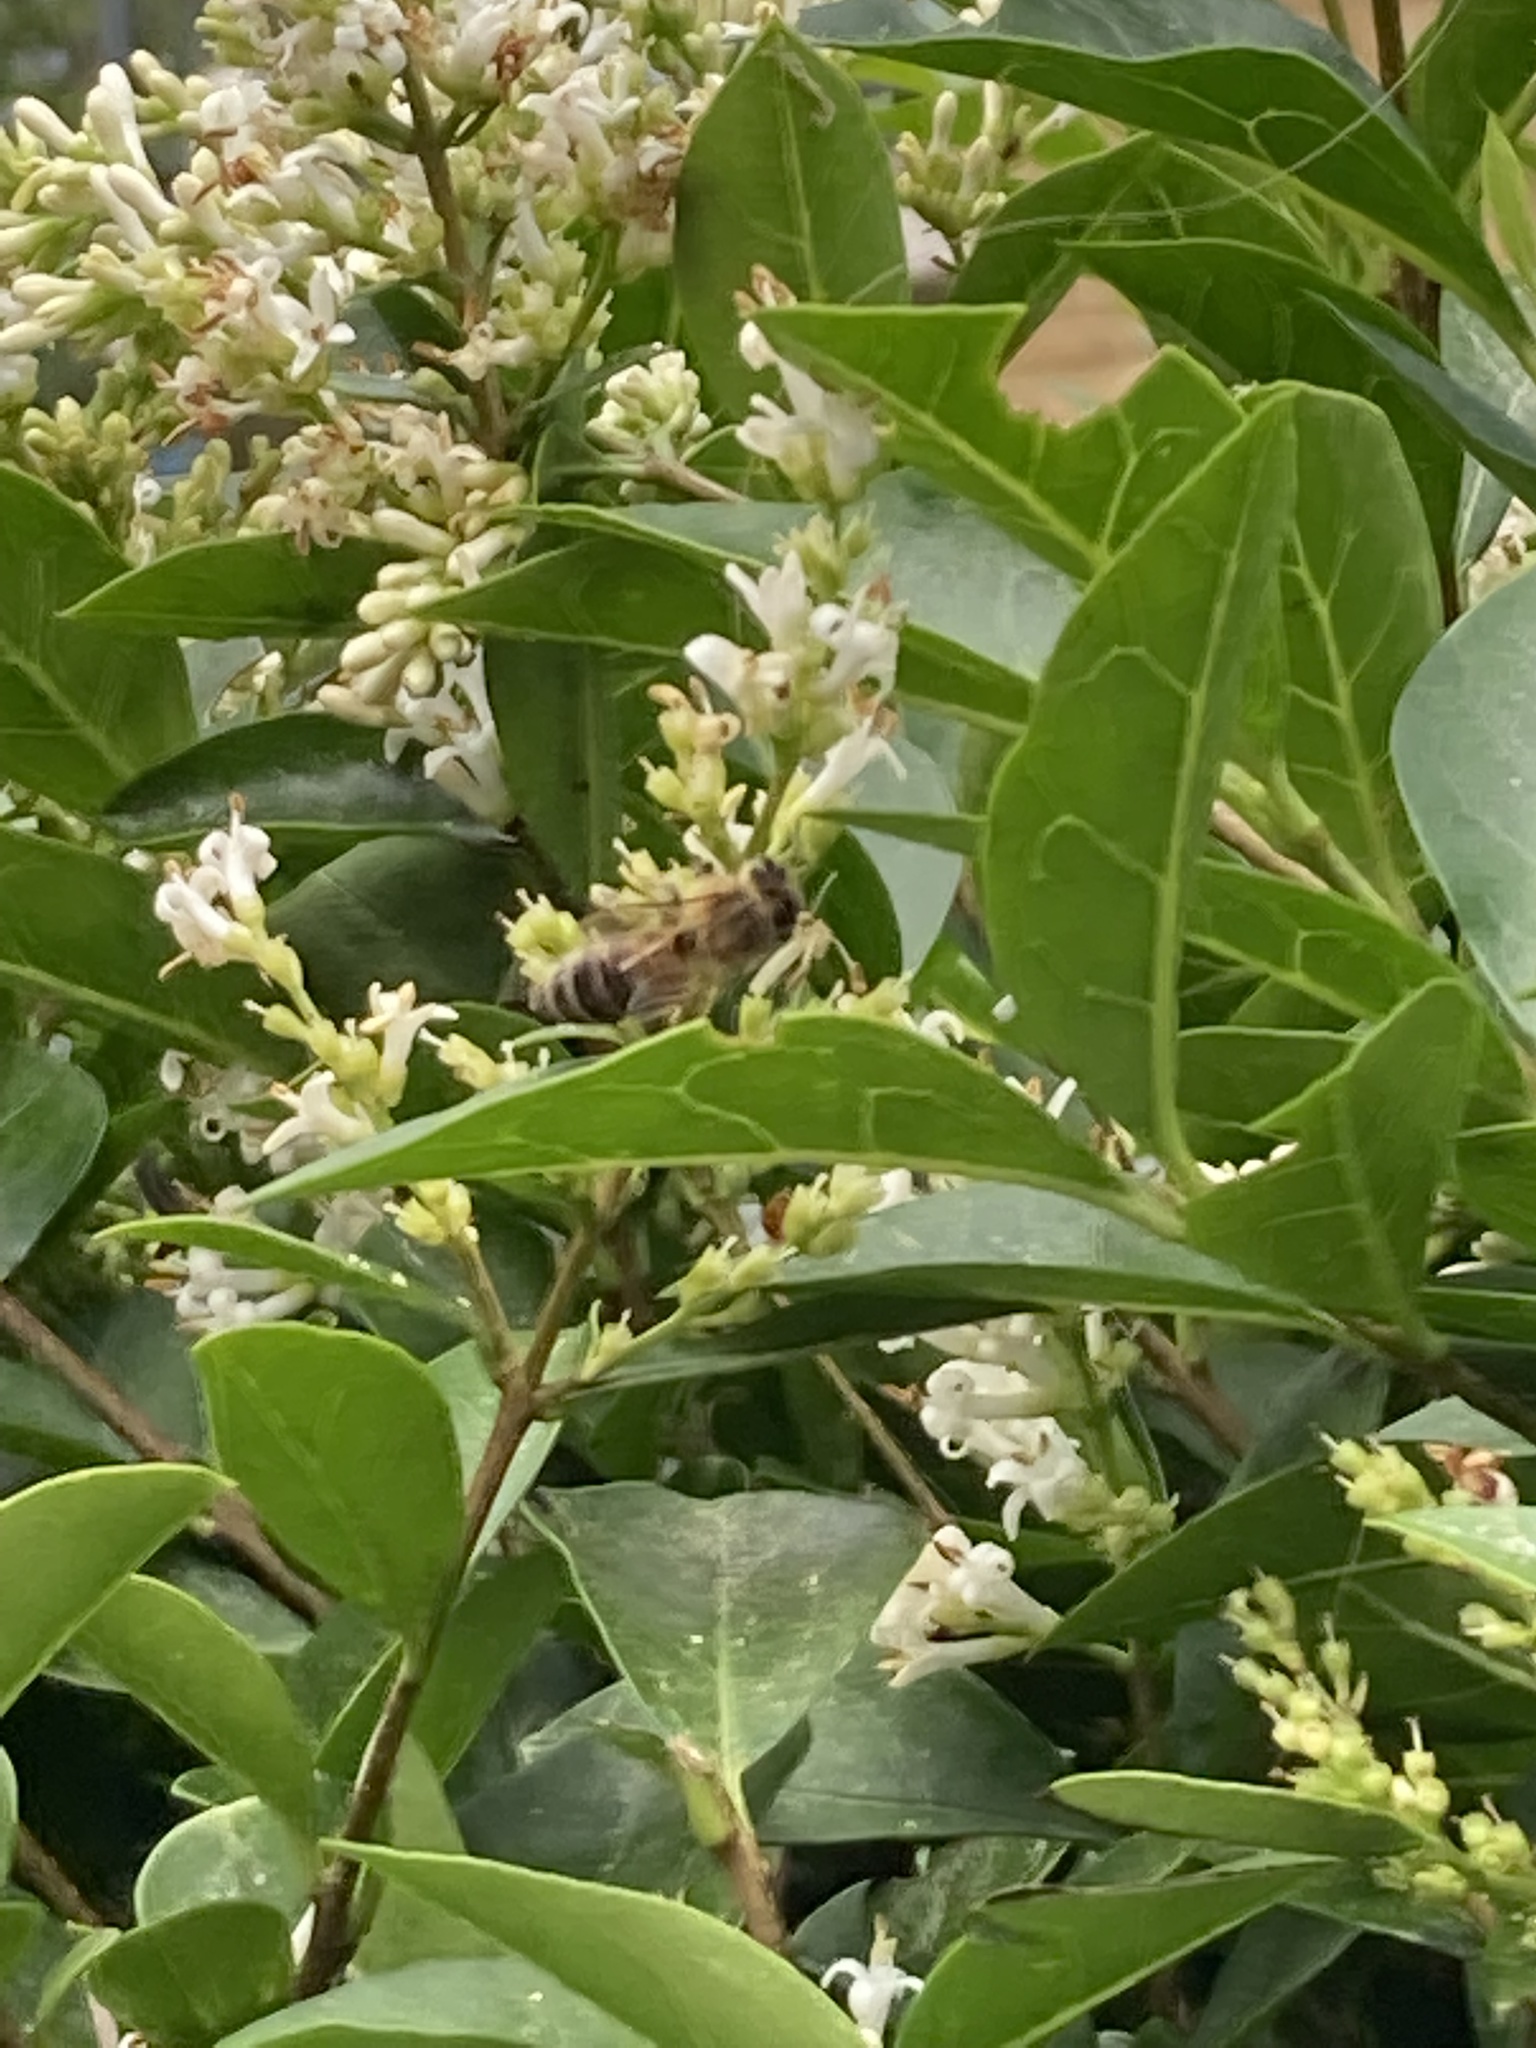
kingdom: Animalia
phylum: Arthropoda
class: Insecta
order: Hymenoptera
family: Apidae
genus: Apis
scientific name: Apis mellifera
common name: Honey bee
